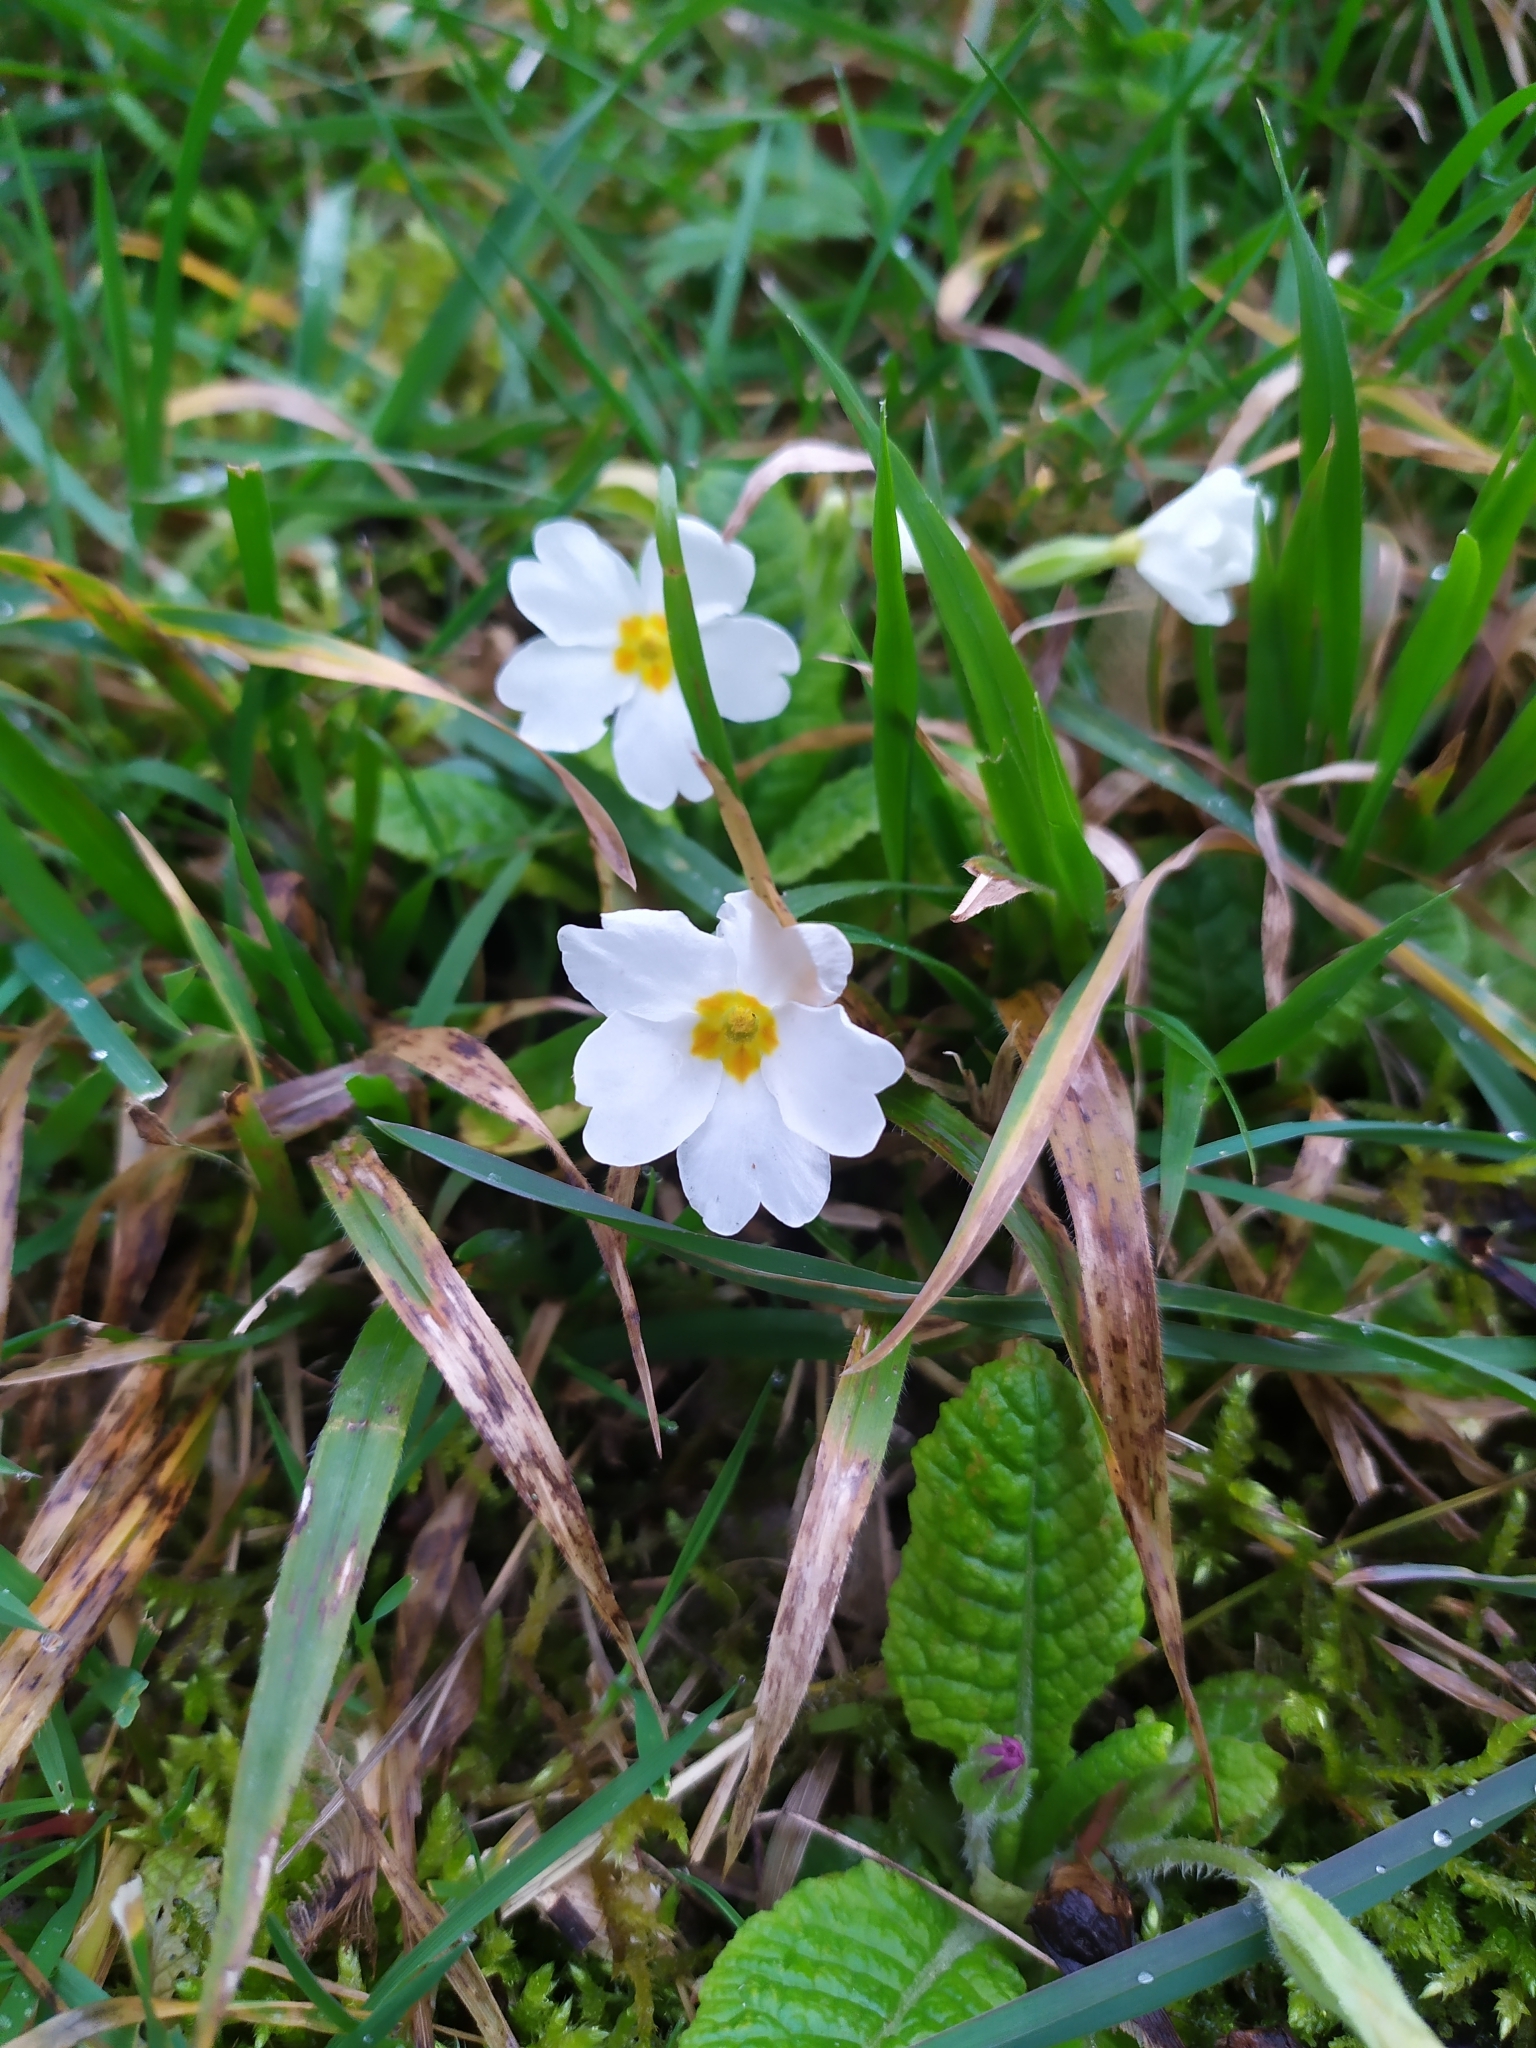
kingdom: Plantae
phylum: Tracheophyta
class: Magnoliopsida
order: Ericales
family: Primulaceae
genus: Primula
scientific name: Primula vulgaris
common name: Primrose
